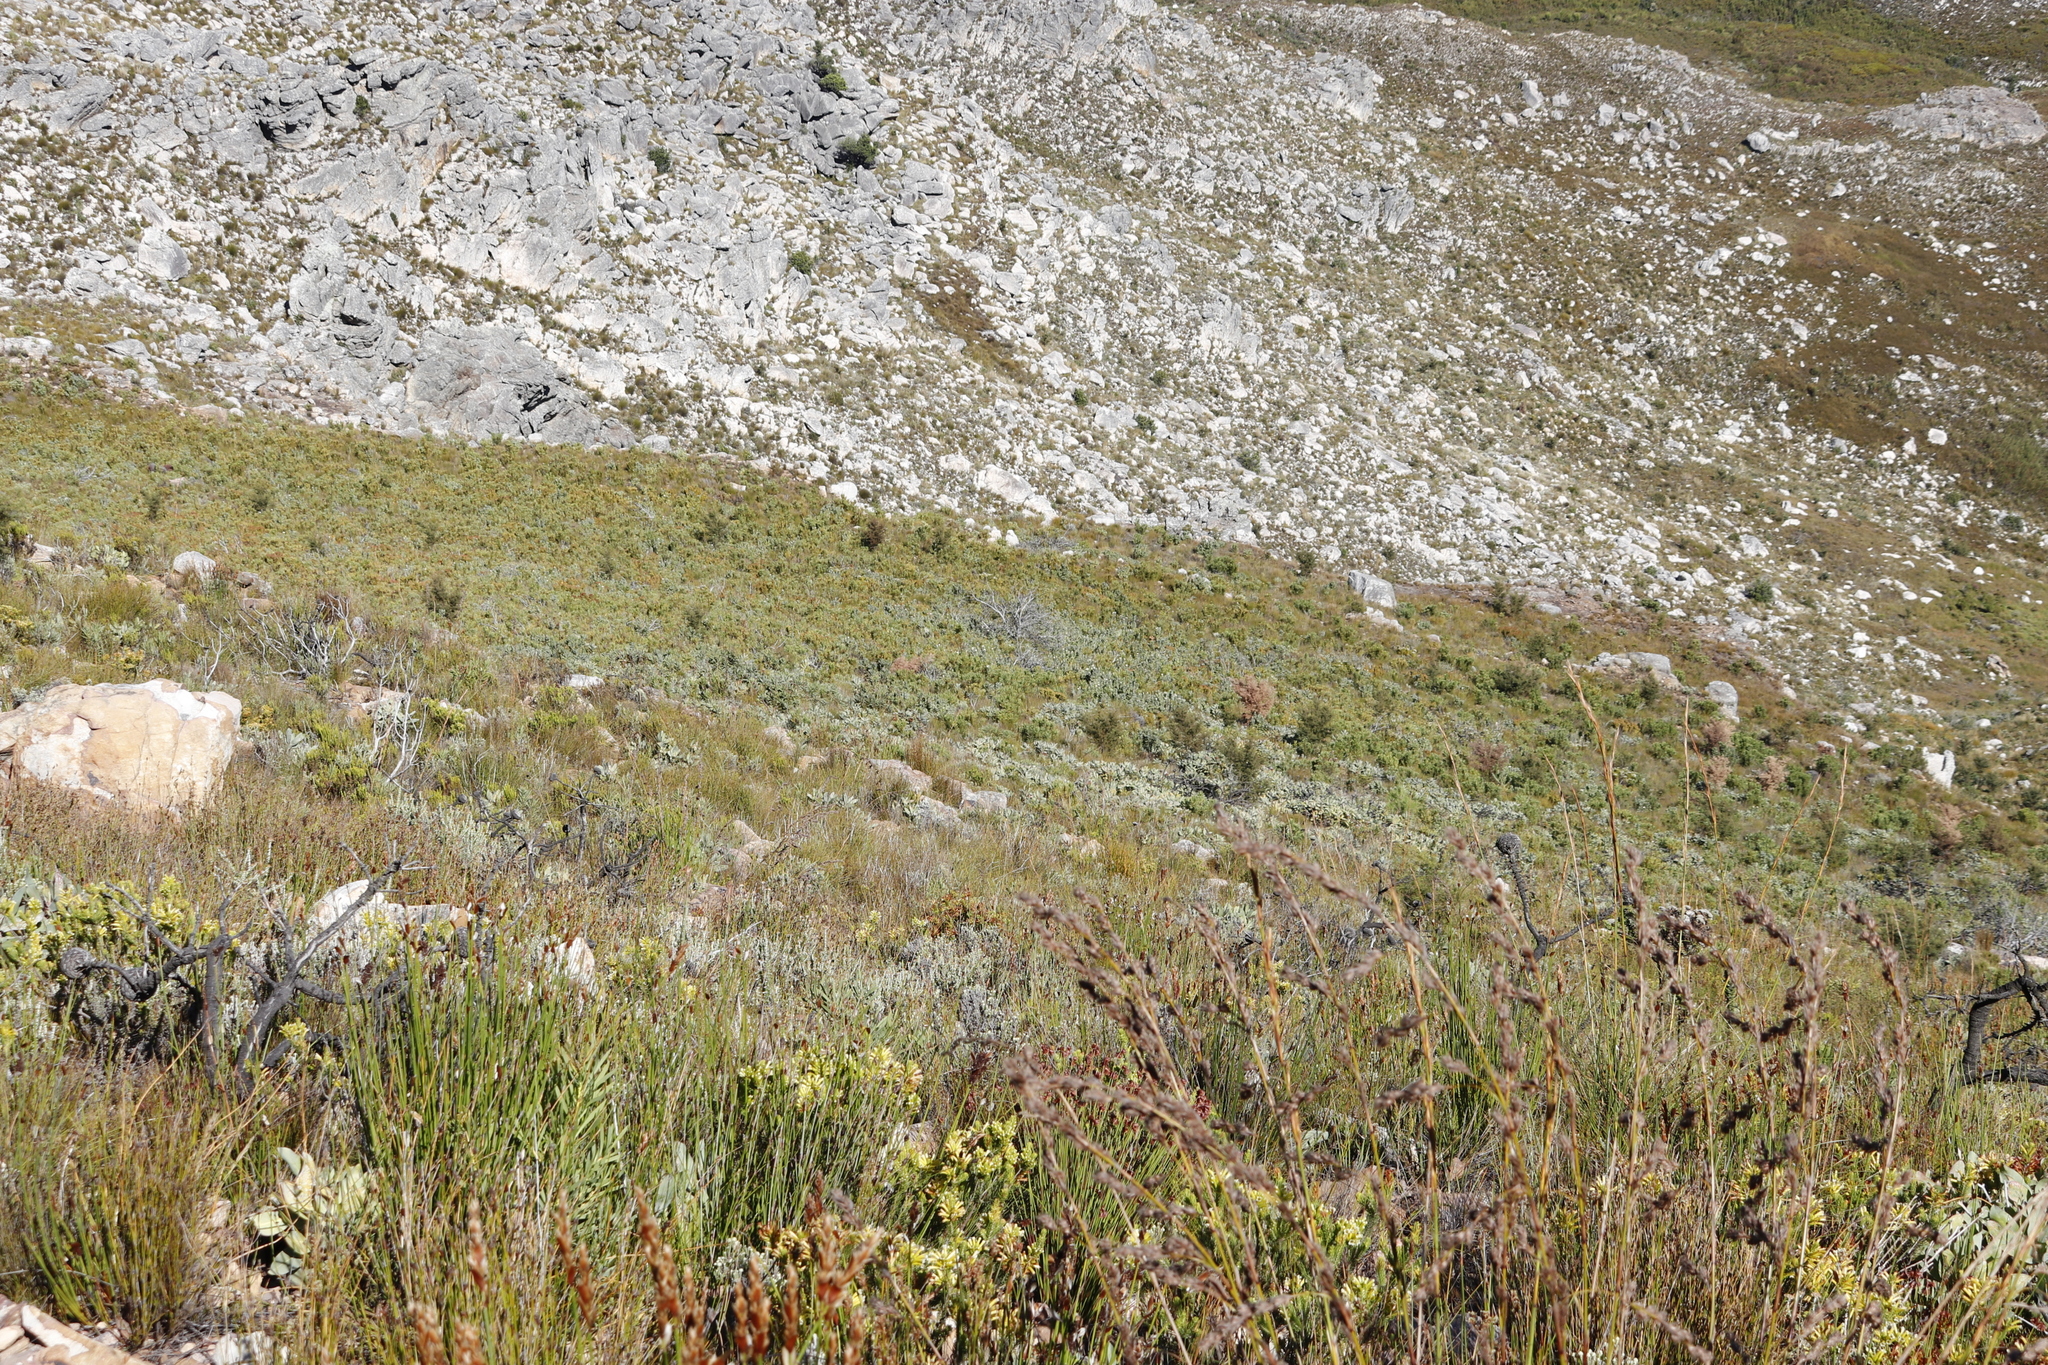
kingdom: Plantae
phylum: Tracheophyta
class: Magnoliopsida
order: Proteales
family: Proteaceae
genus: Hakea
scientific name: Hakea sericea
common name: Needle bush
